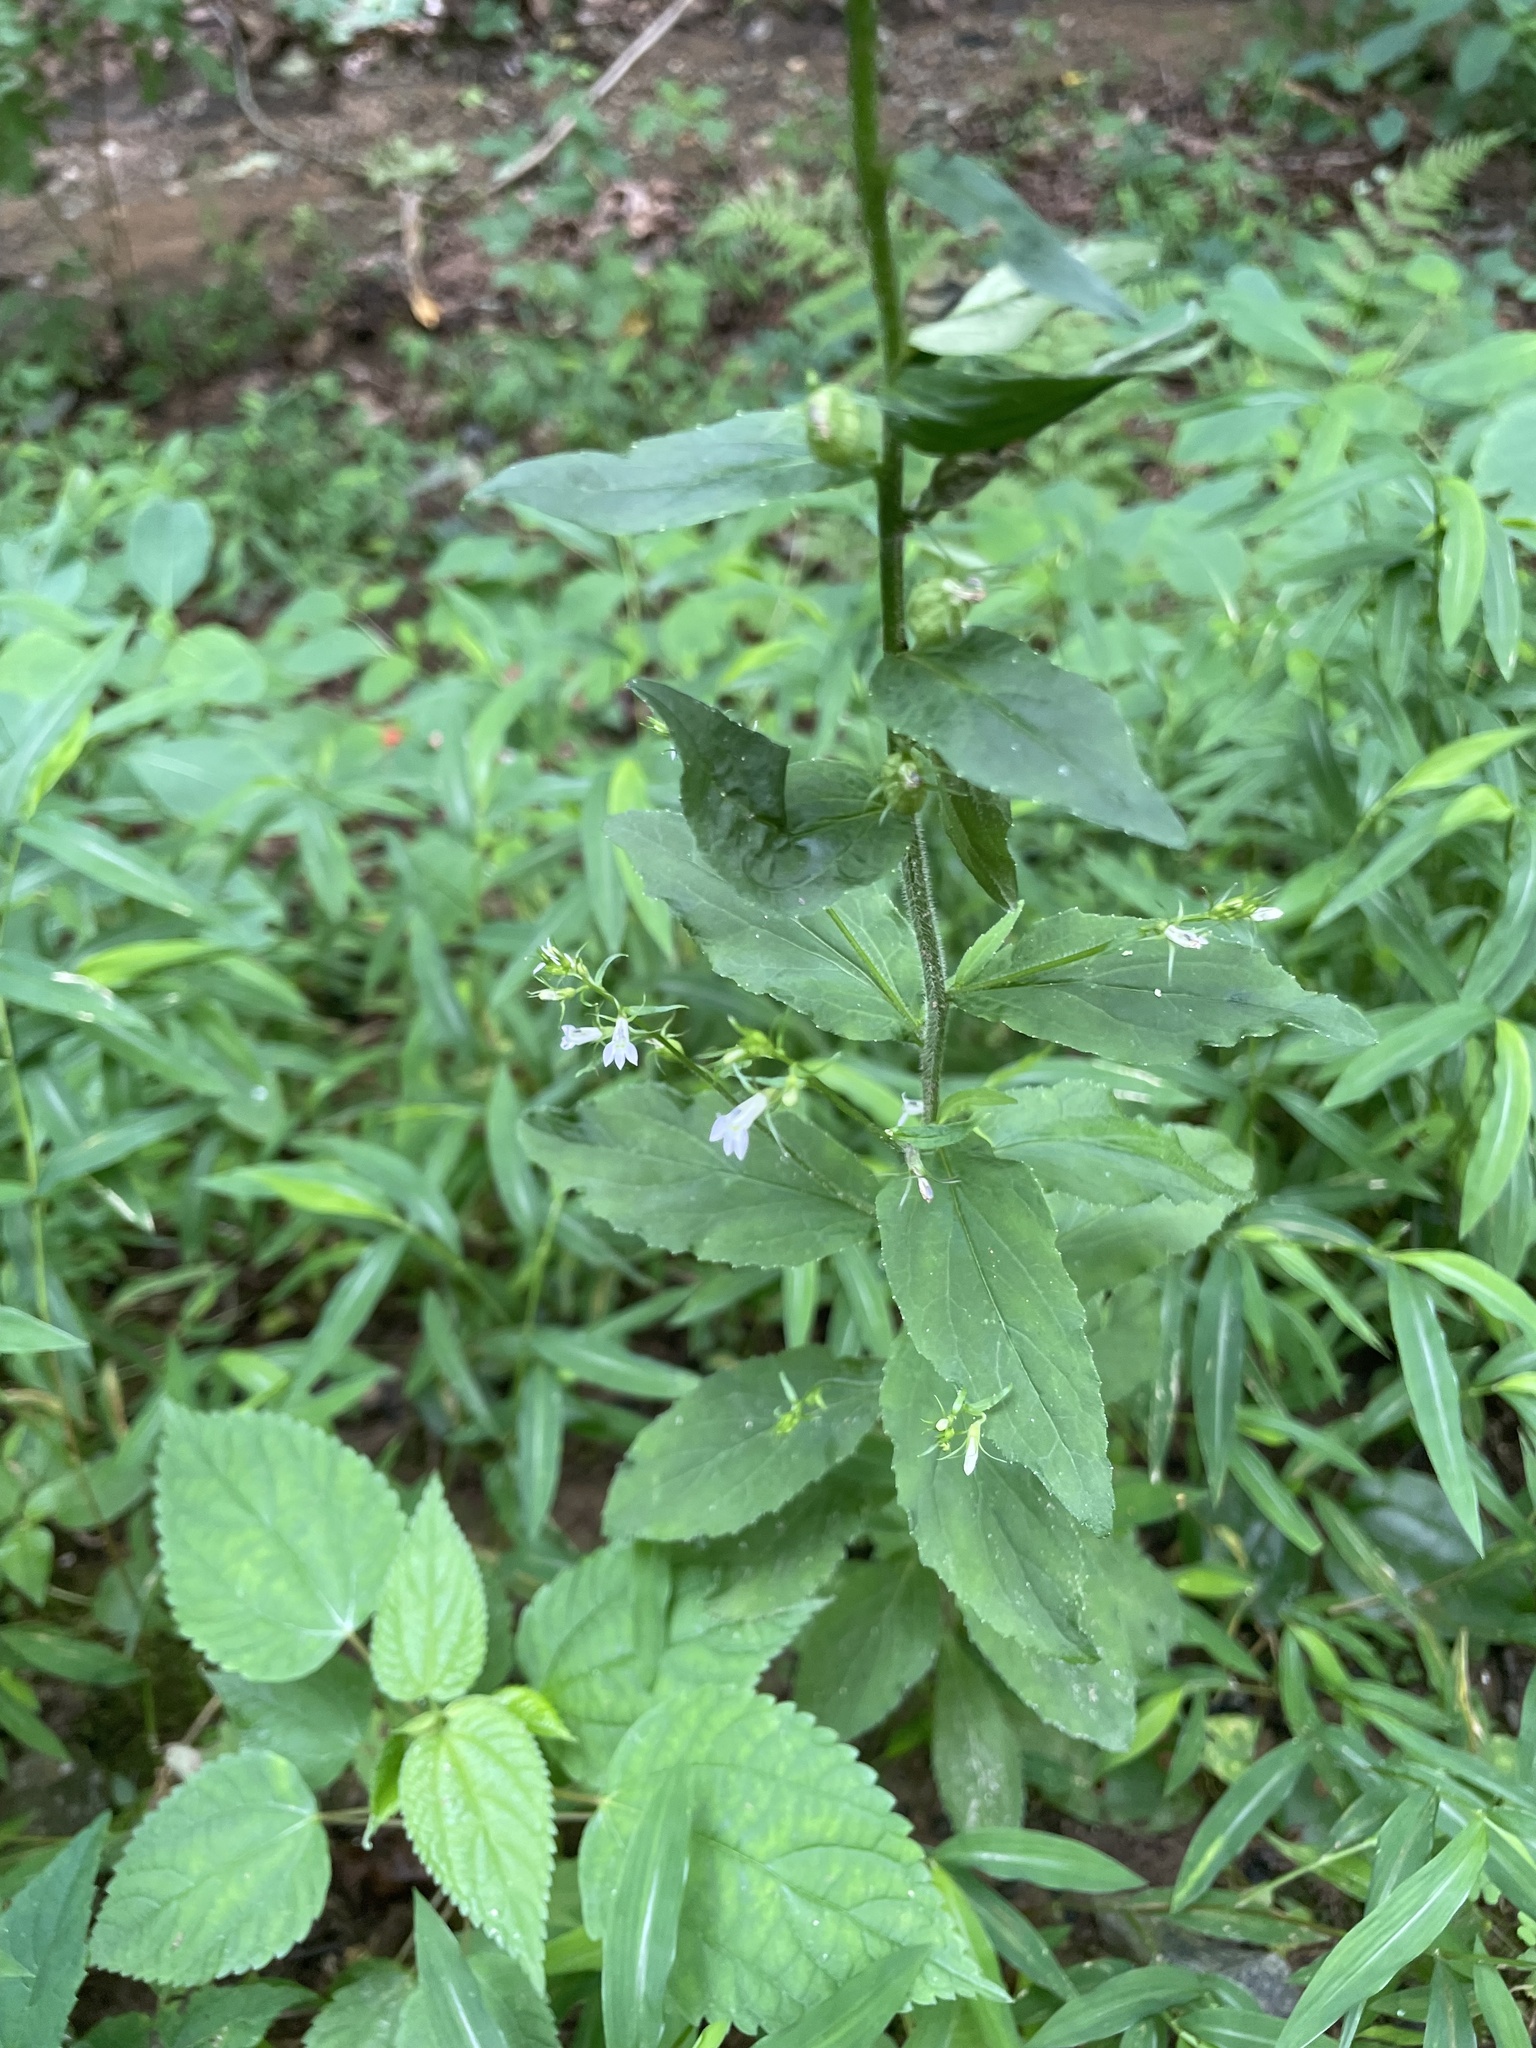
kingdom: Plantae
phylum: Tracheophyta
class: Magnoliopsida
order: Asterales
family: Campanulaceae
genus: Lobelia
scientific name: Lobelia inflata
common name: Indian tobacco
